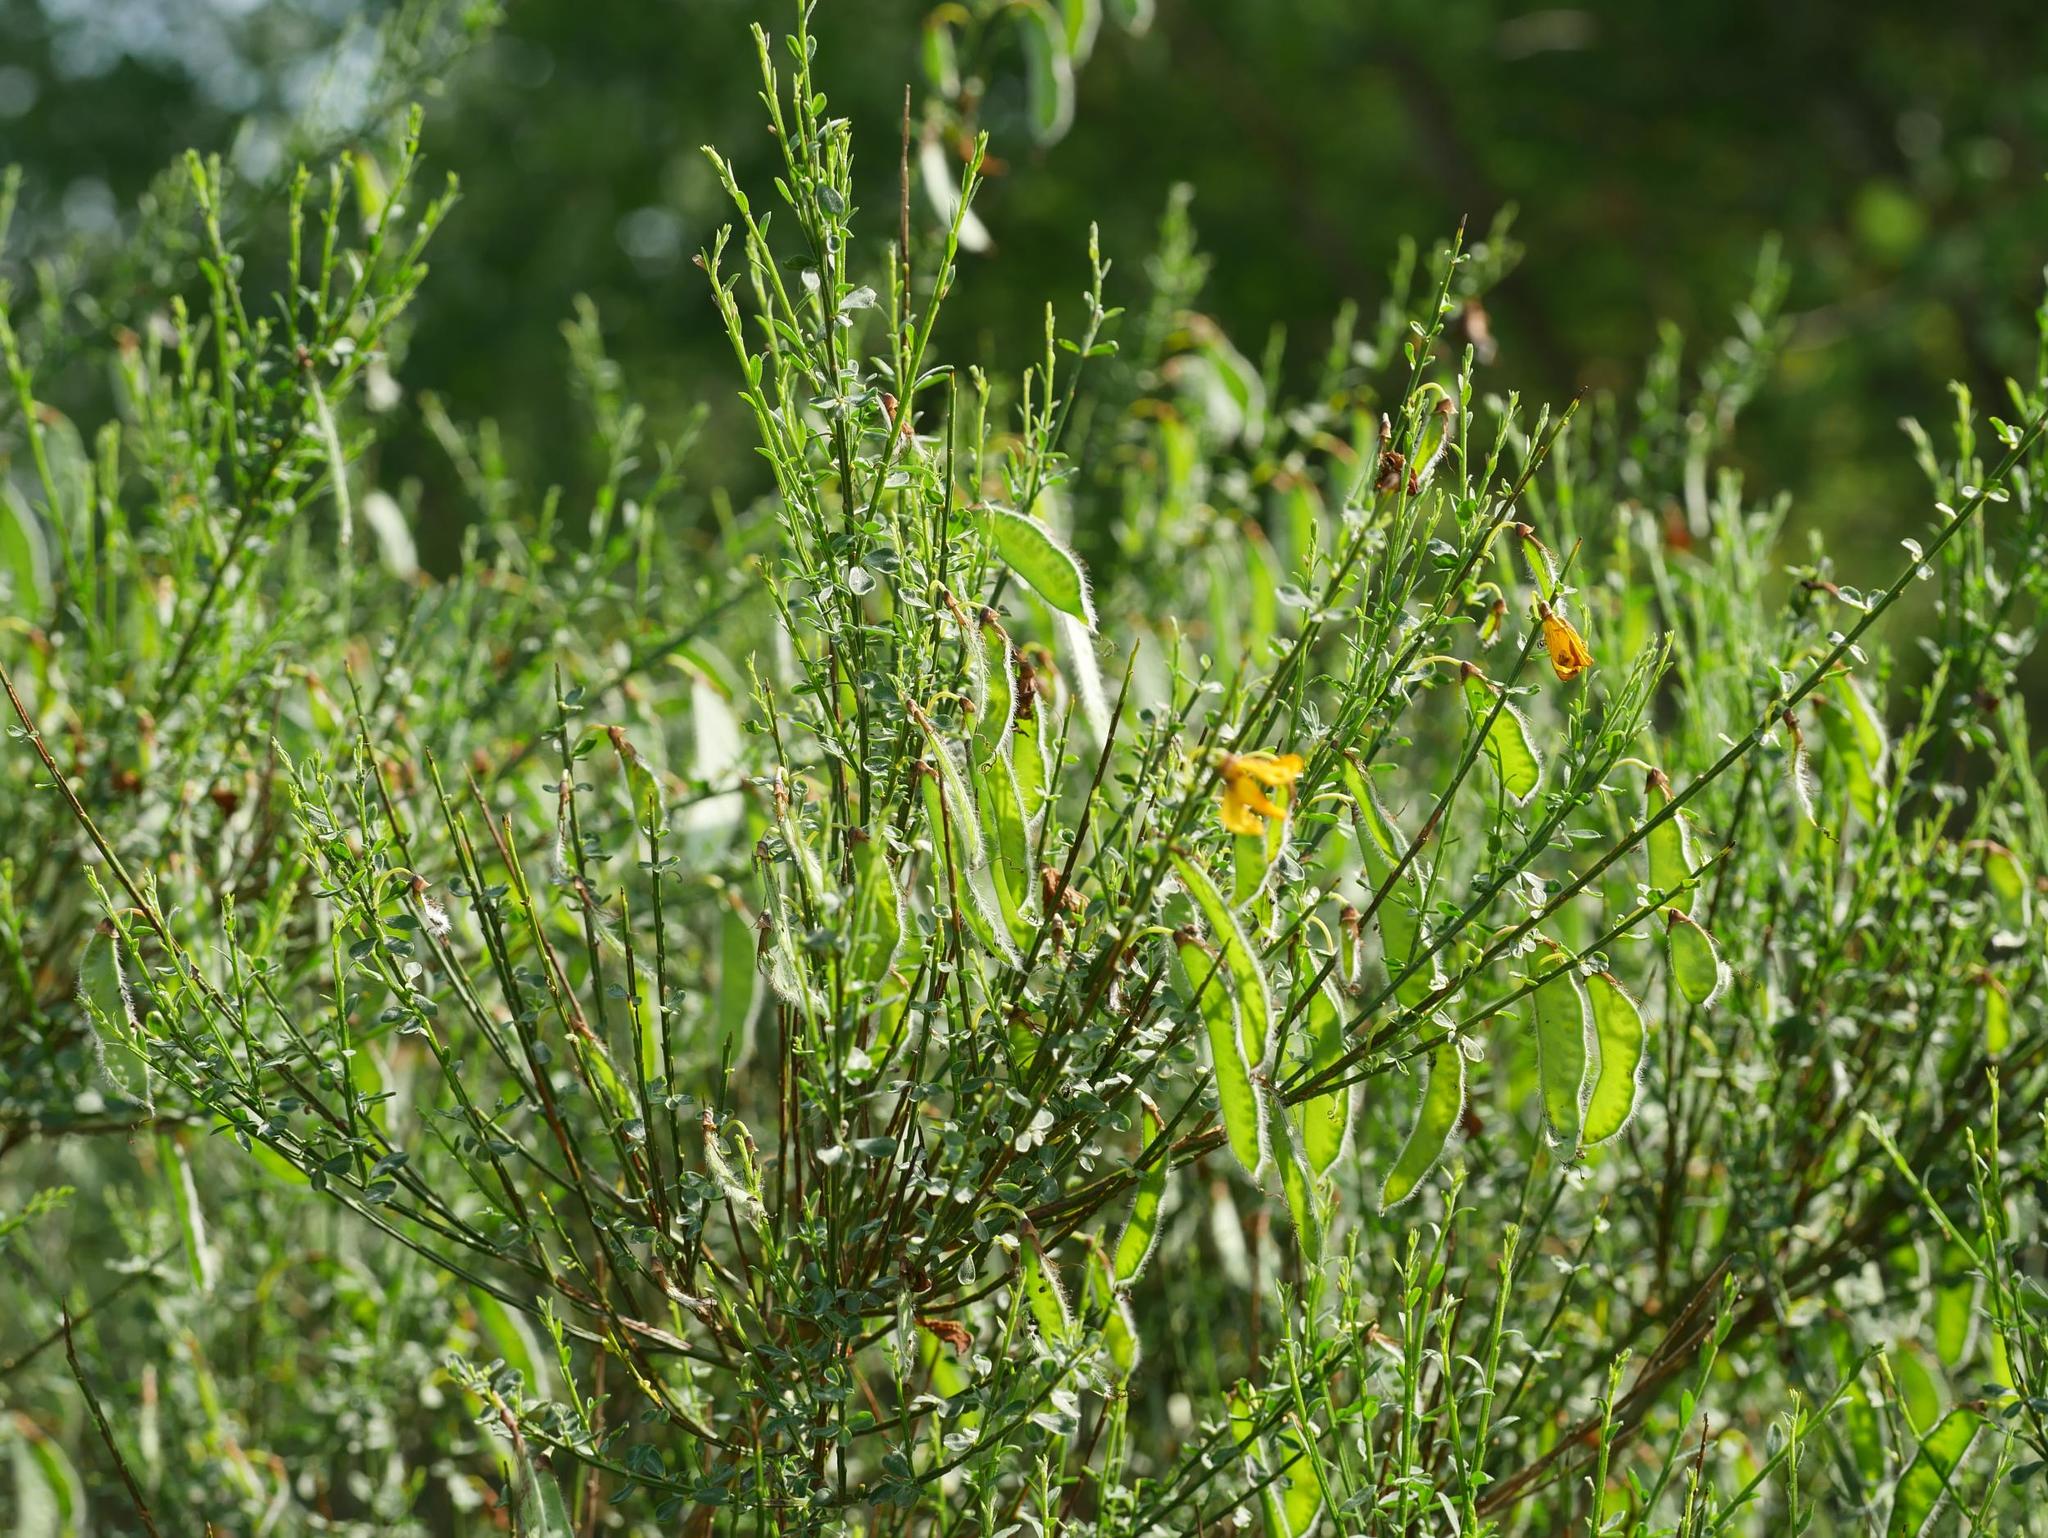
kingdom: Plantae
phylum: Tracheophyta
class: Magnoliopsida
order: Fabales
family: Fabaceae
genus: Cytisus
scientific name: Cytisus scoparius
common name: Scotch broom
